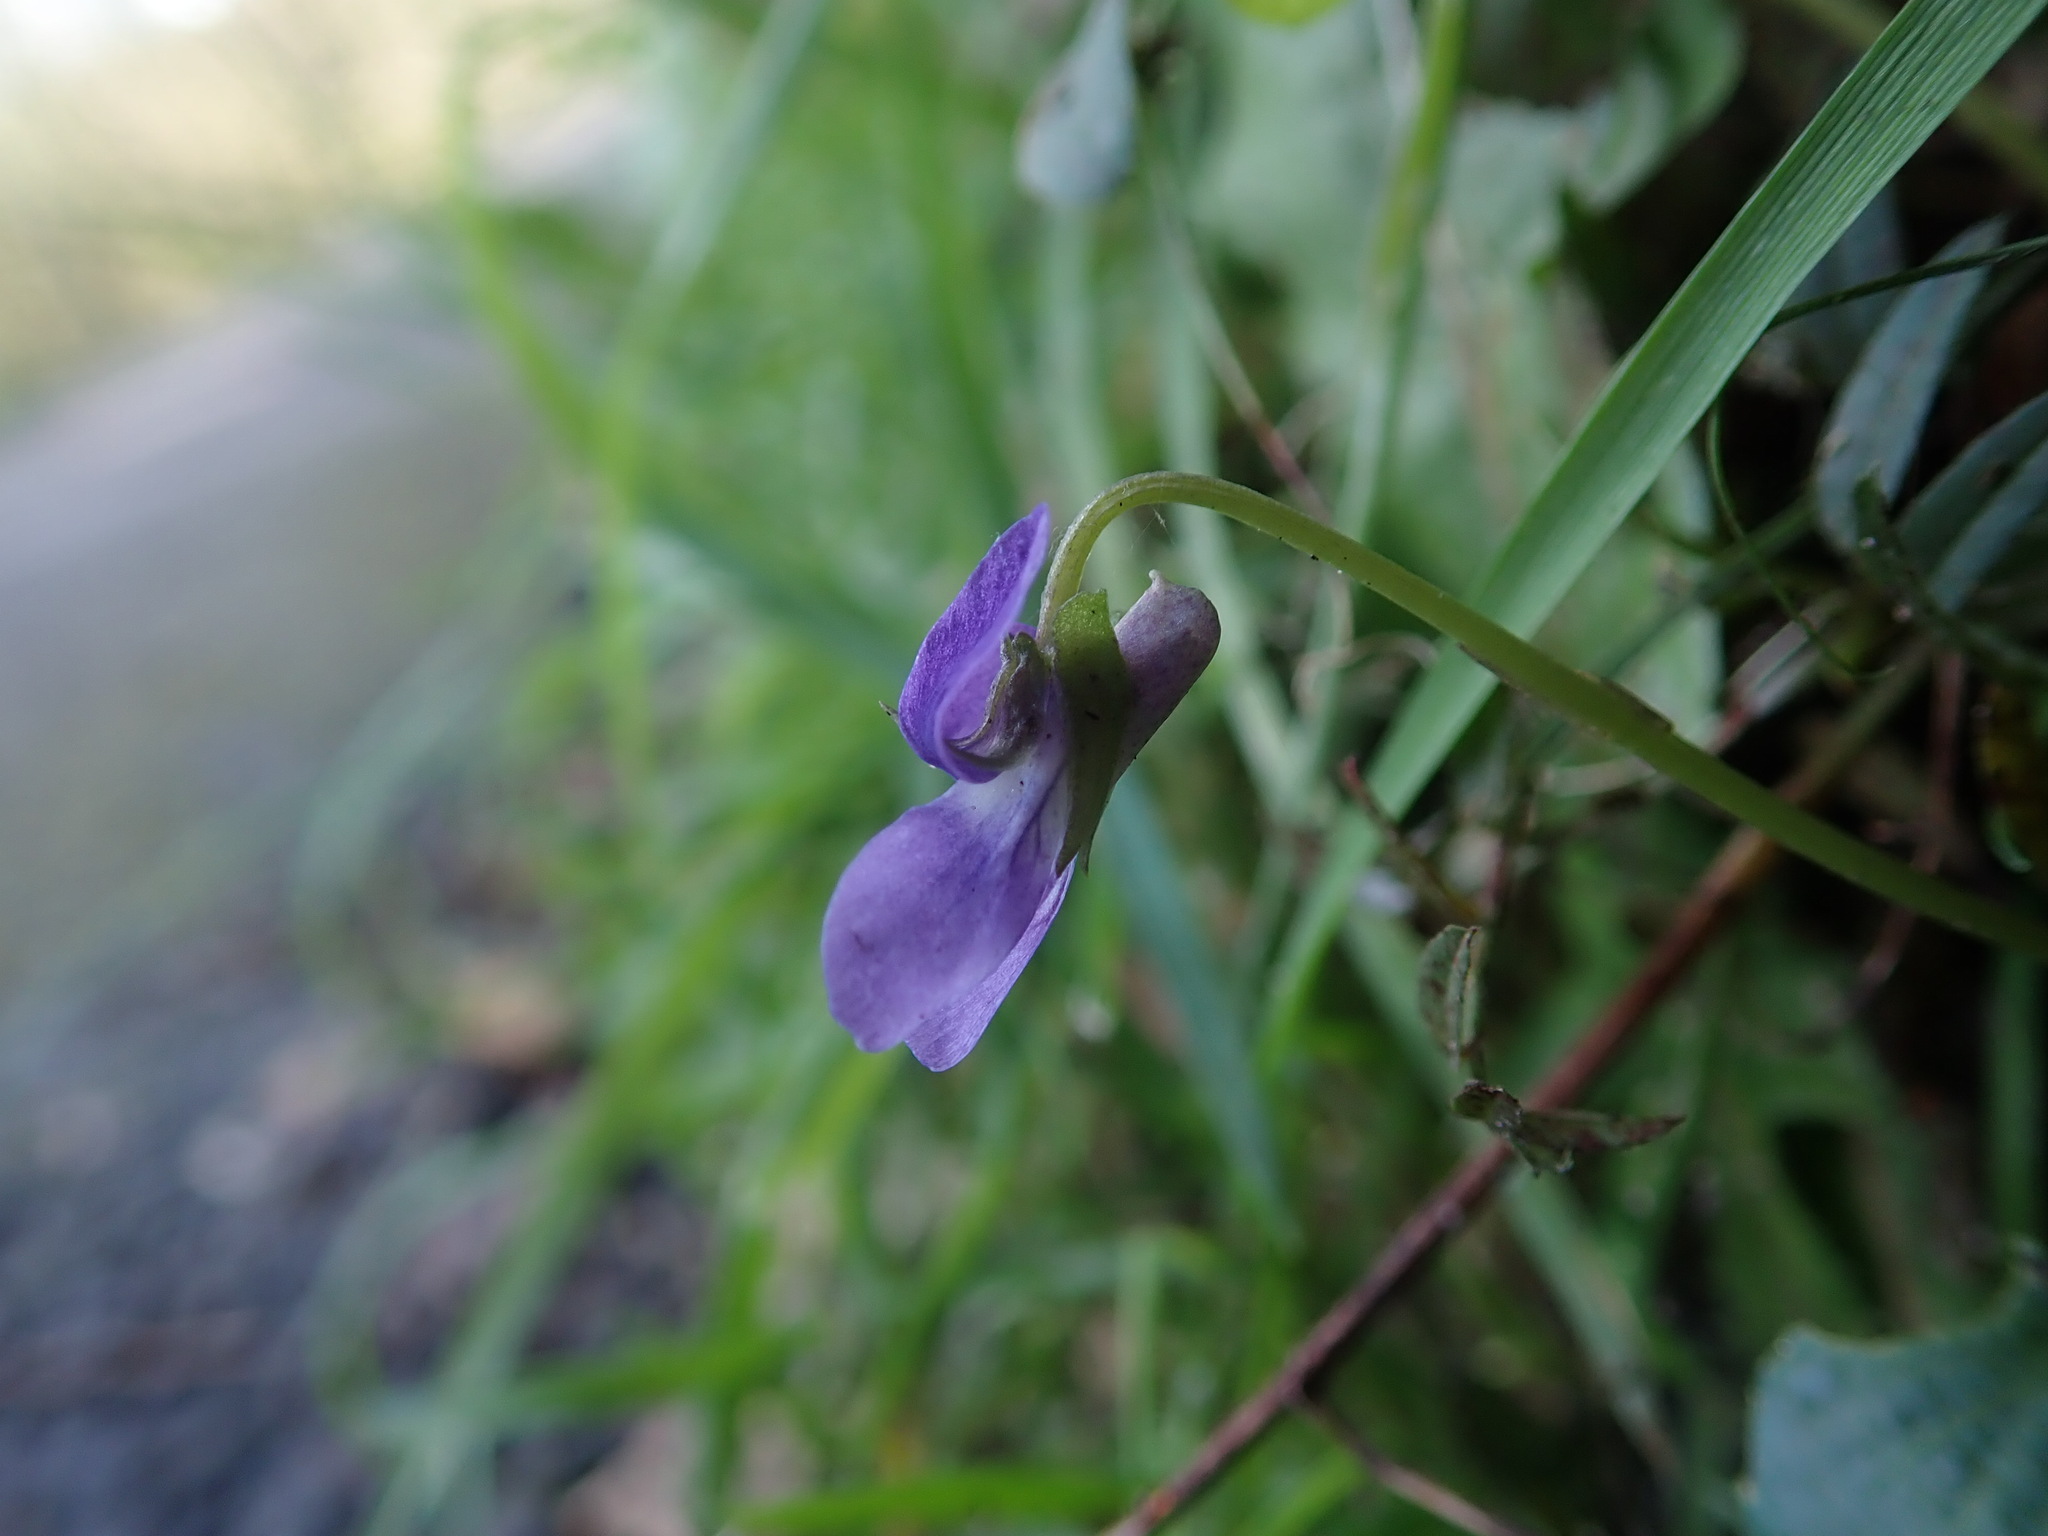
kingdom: Plantae
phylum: Tracheophyta
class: Magnoliopsida
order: Malpighiales
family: Violaceae
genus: Viola
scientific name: Viola riviniana
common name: Common dog-violet
